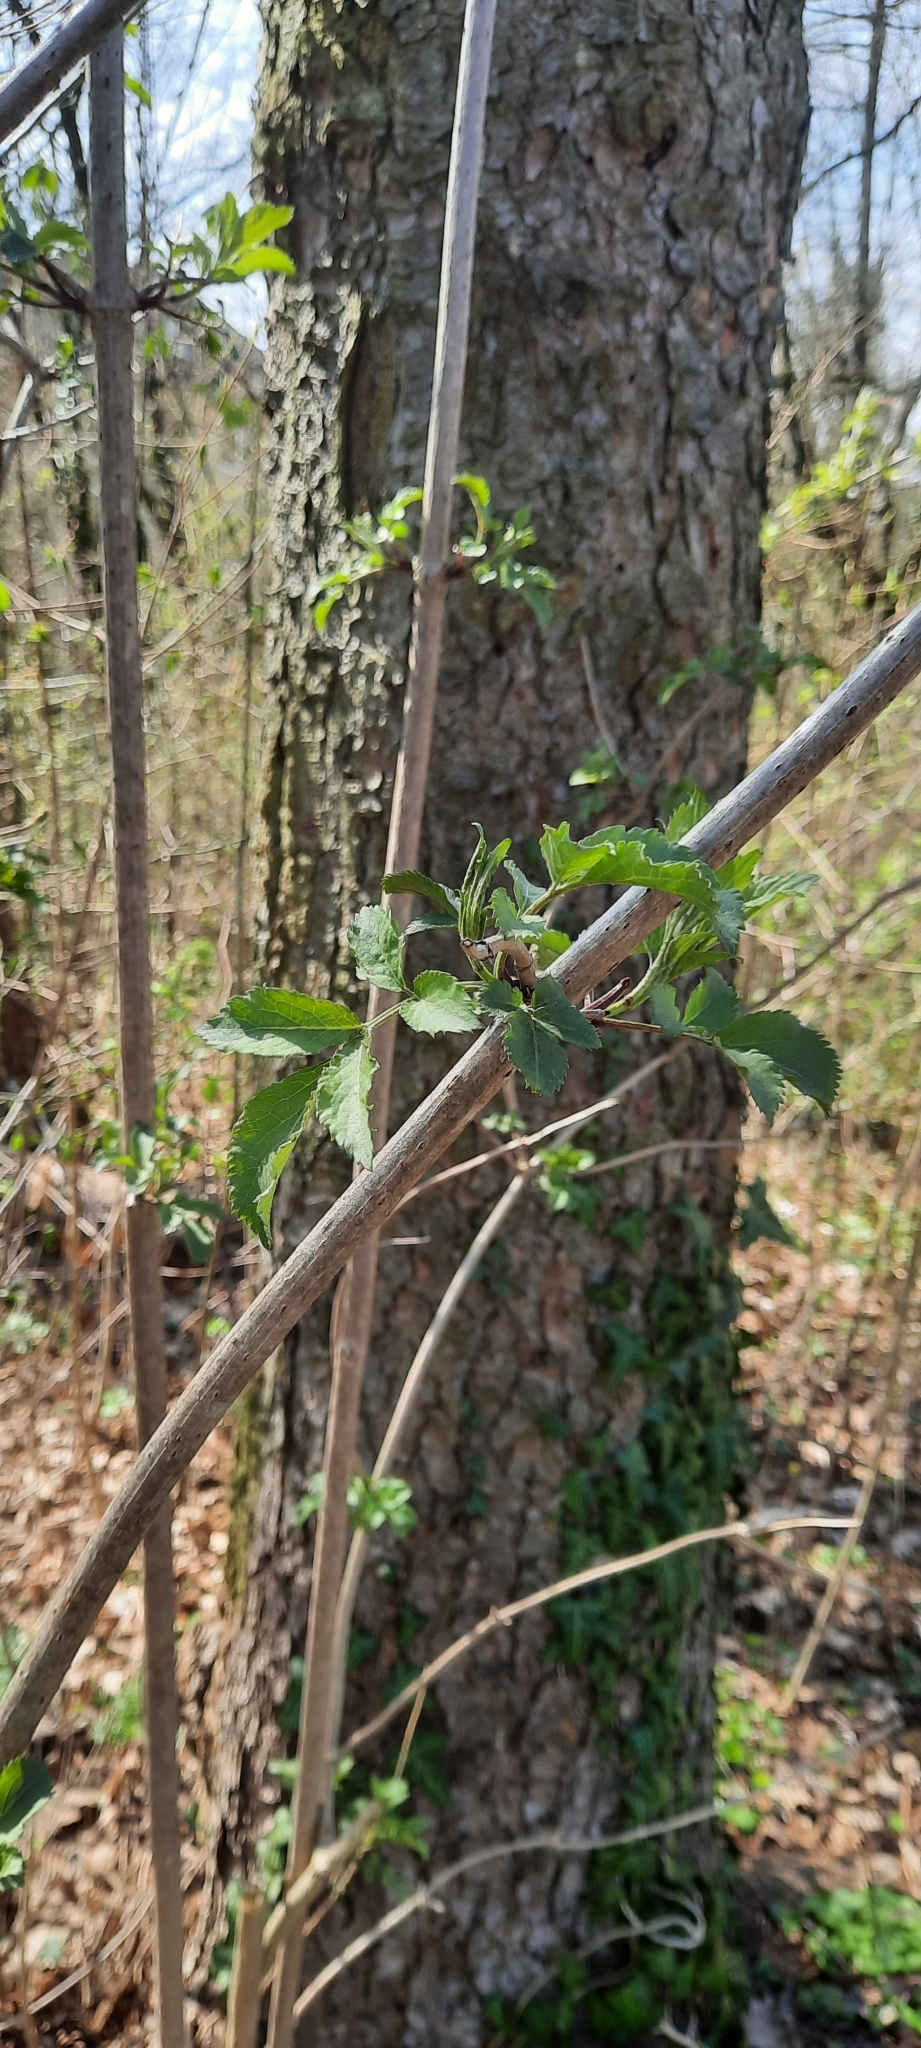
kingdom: Plantae
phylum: Tracheophyta
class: Magnoliopsida
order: Dipsacales
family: Viburnaceae
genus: Sambucus
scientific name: Sambucus nigra
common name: Elder
